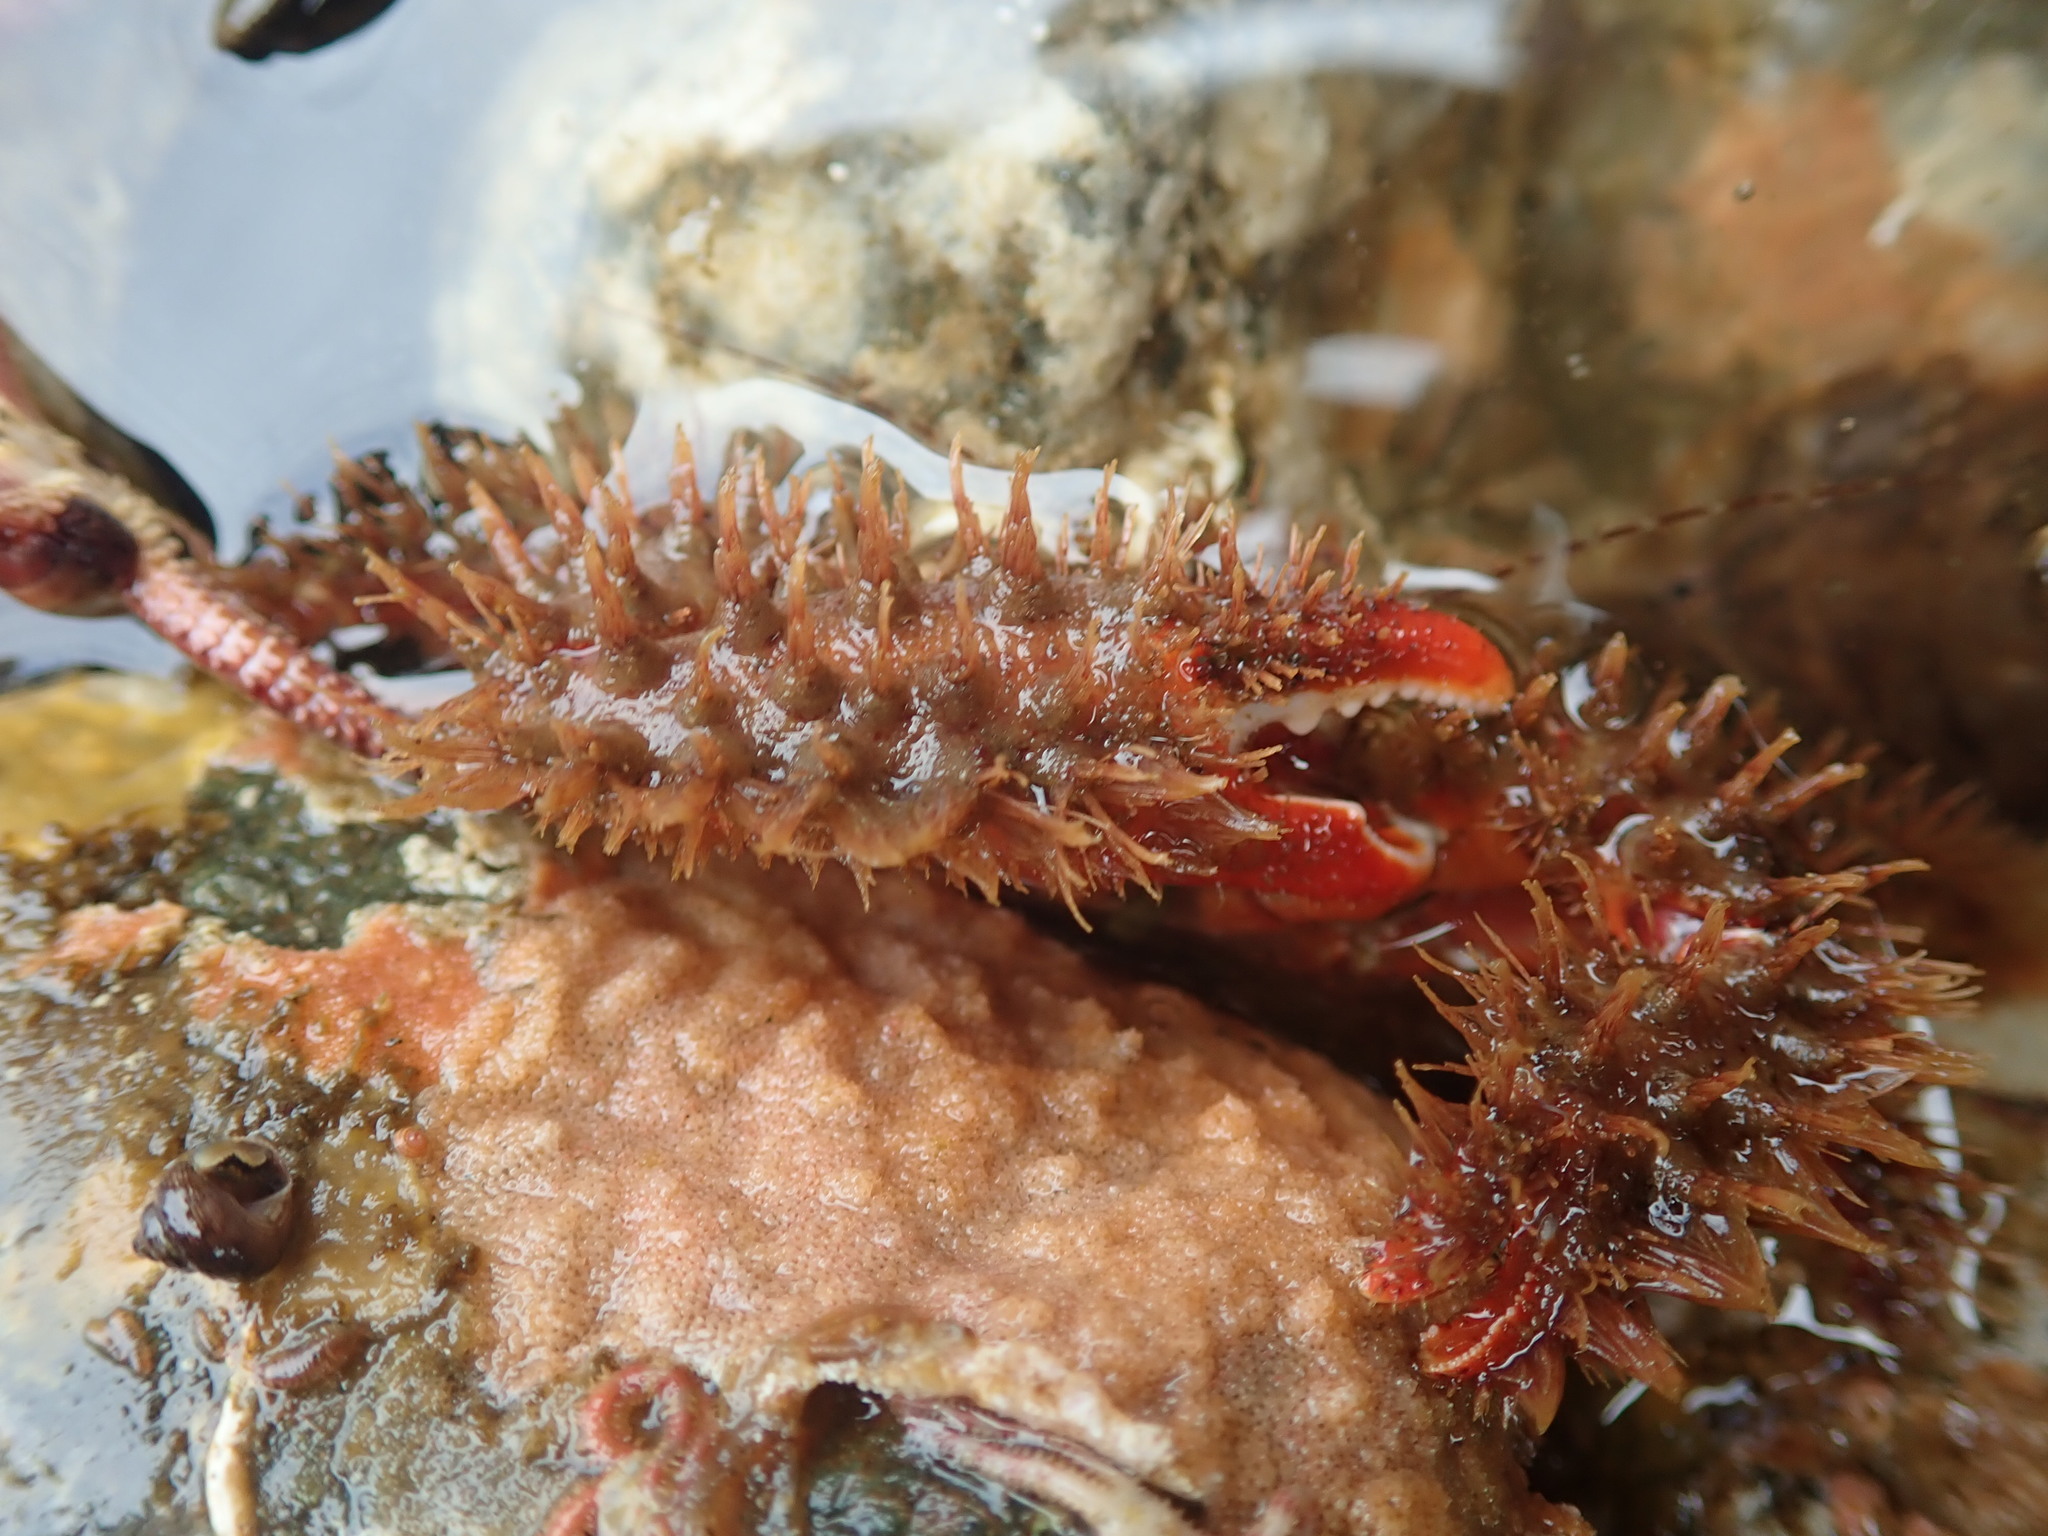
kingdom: Animalia
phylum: Arthropoda
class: Malacostraca
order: Decapoda
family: Hapalogastridae
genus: Hapalogaster
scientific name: Hapalogaster mertensii
